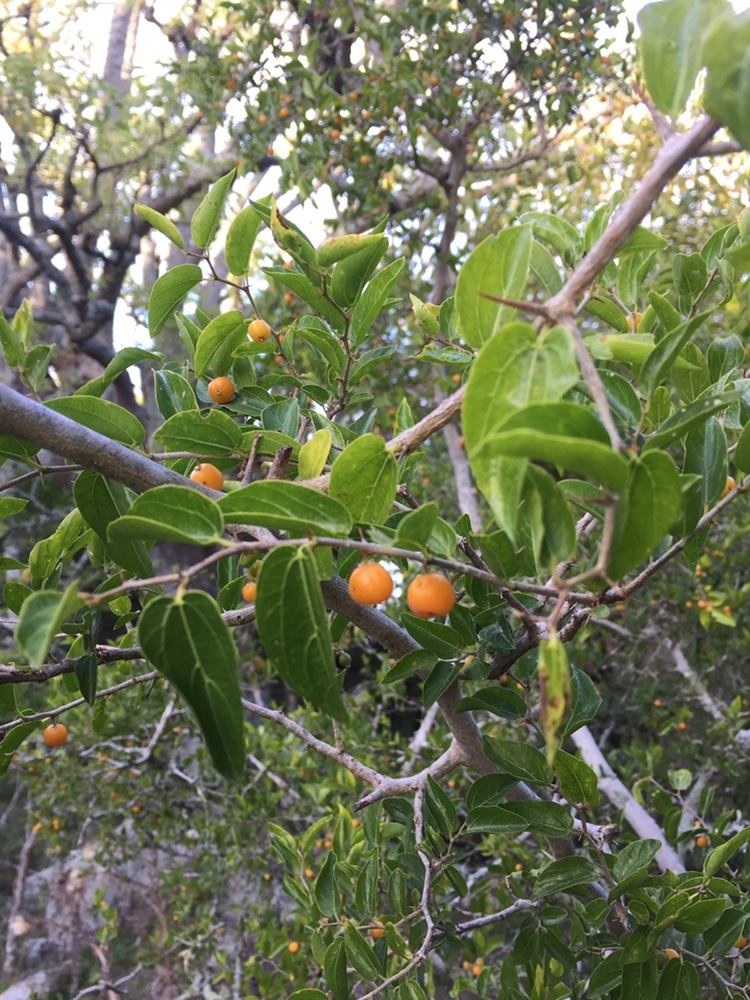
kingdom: Plantae
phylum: Tracheophyta
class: Magnoliopsida
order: Rosales
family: Cannabaceae
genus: Celtis
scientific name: Celtis tala
